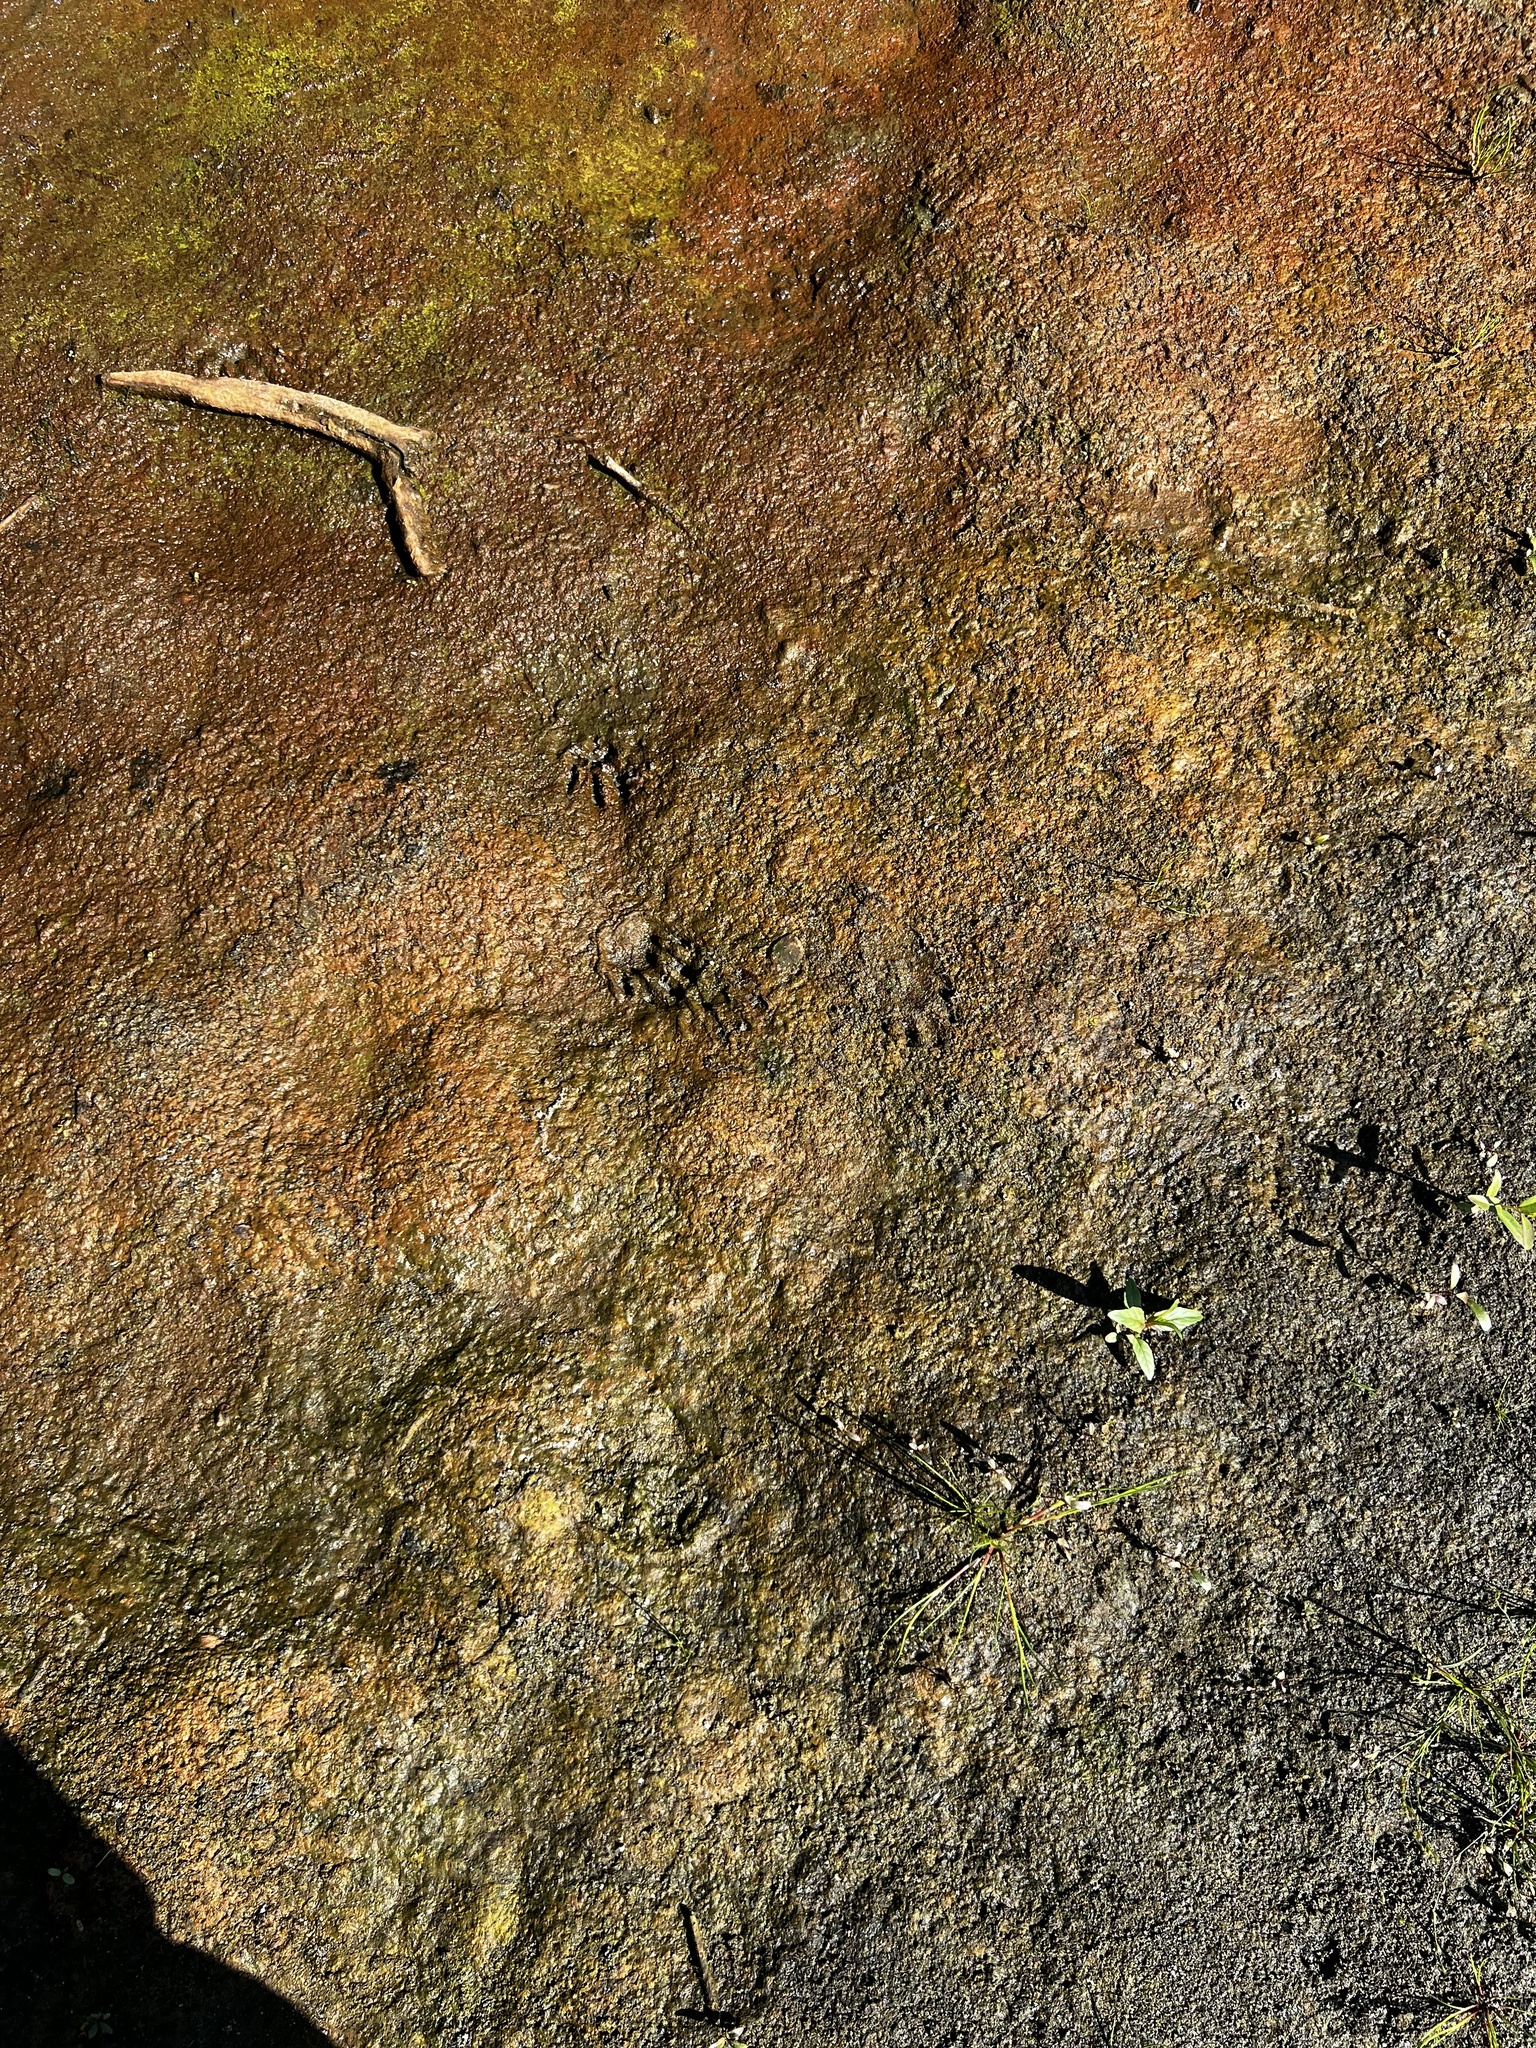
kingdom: Animalia
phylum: Chordata
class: Mammalia
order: Carnivora
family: Procyonidae
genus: Procyon
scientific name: Procyon lotor
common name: Raccoon
